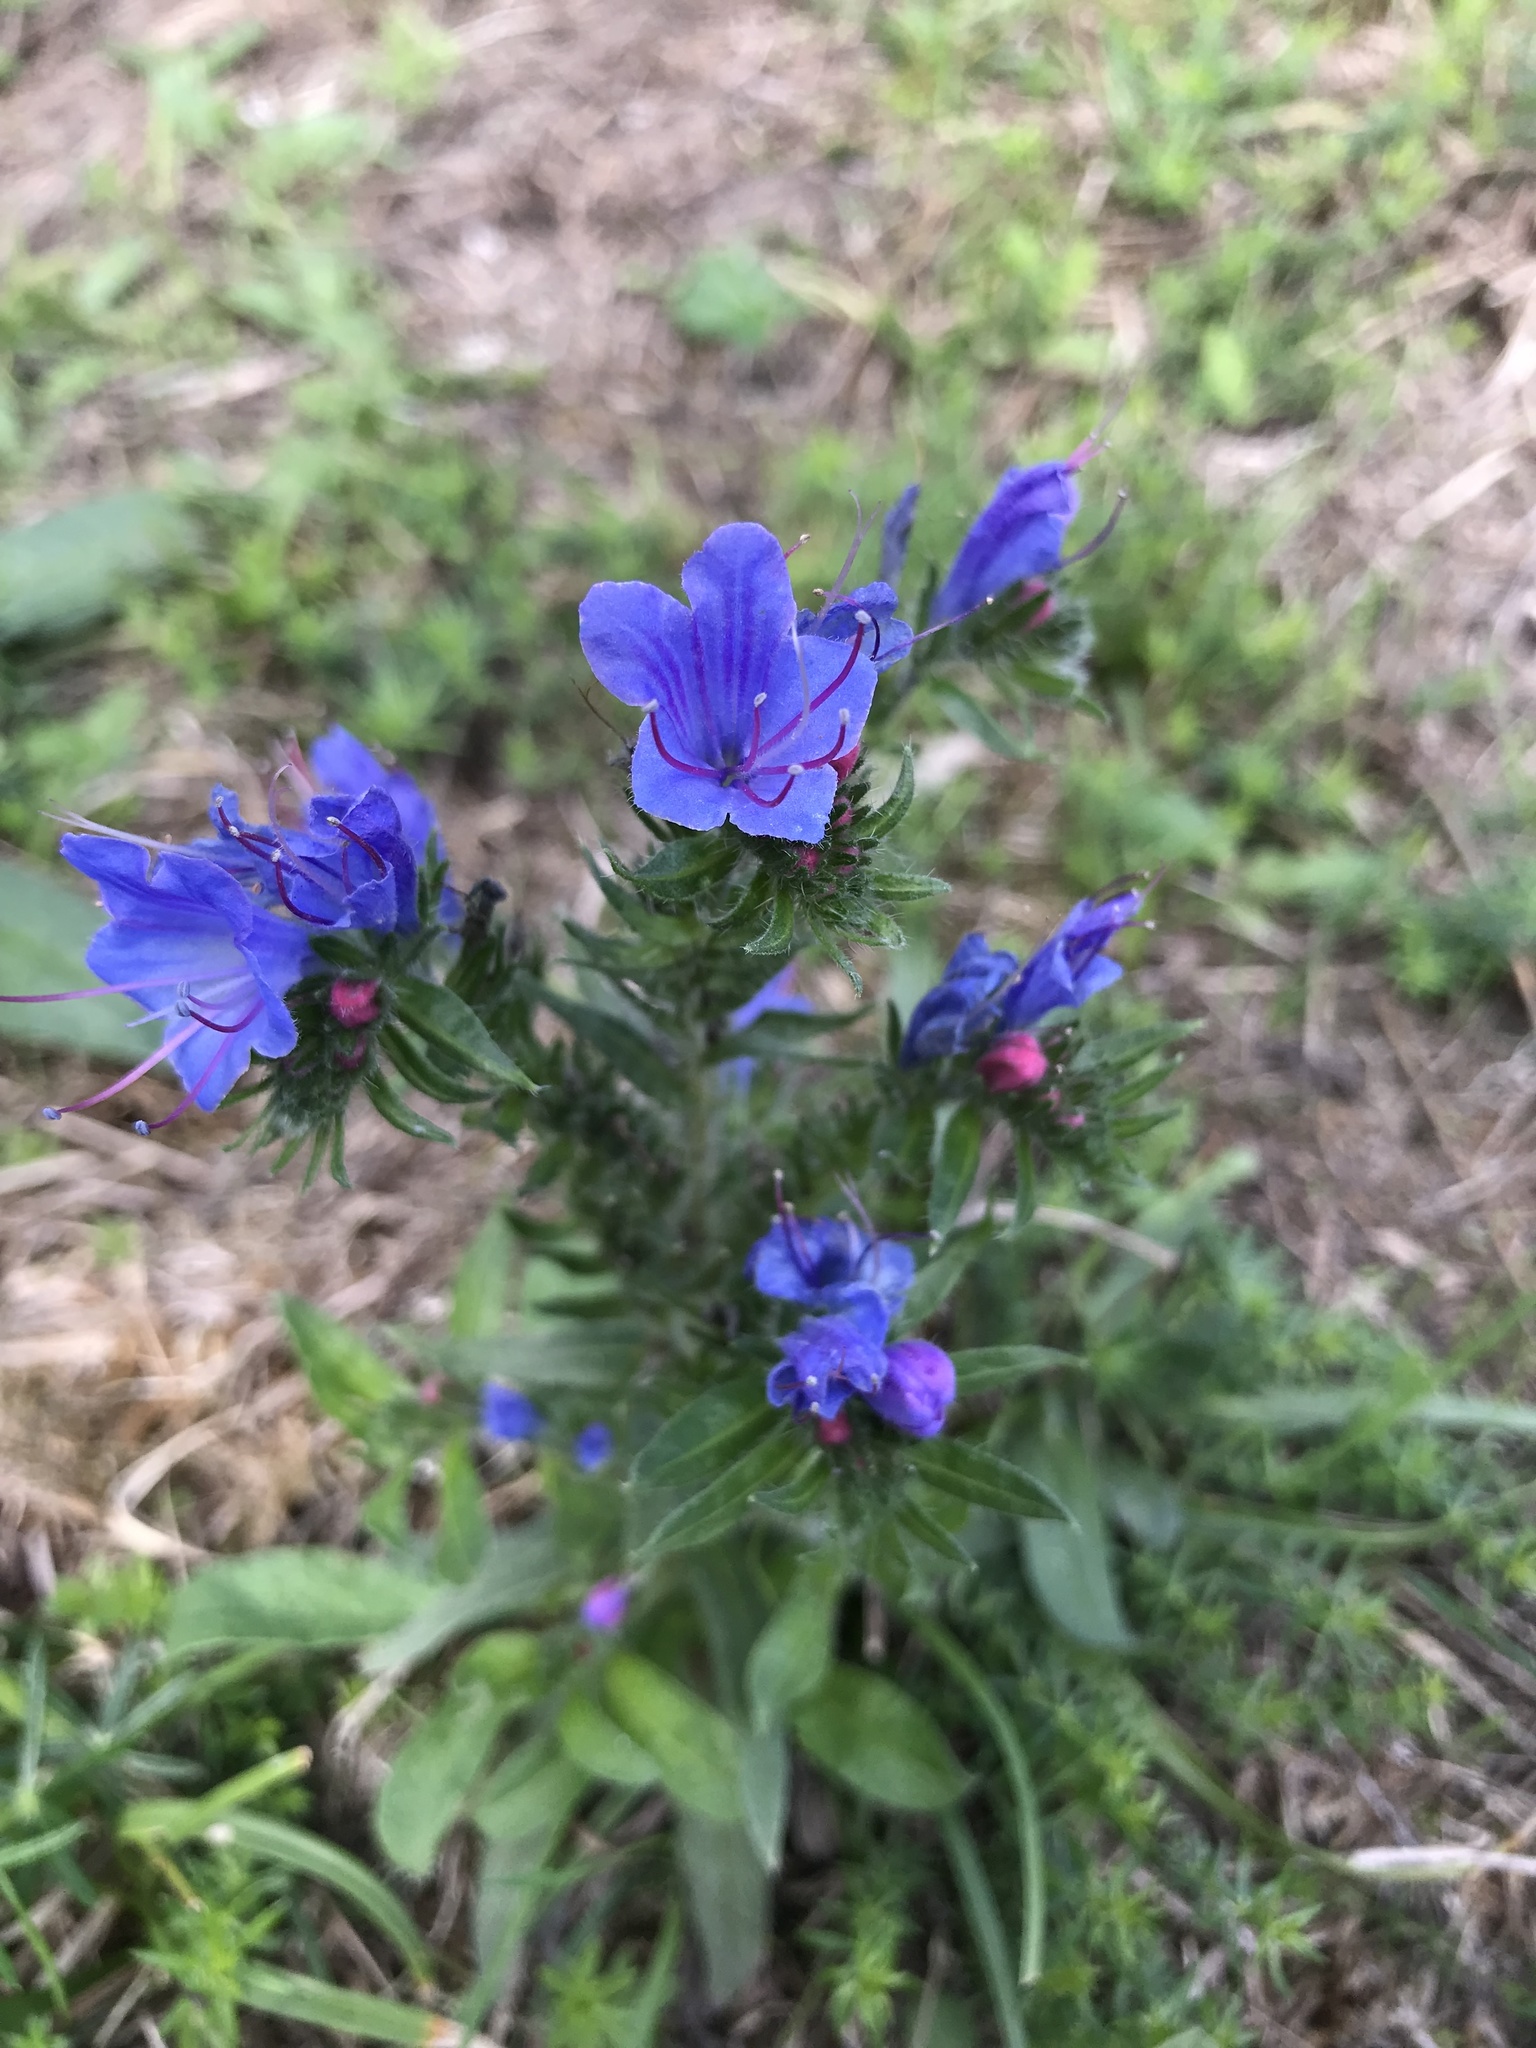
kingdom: Plantae
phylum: Tracheophyta
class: Magnoliopsida
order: Boraginales
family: Boraginaceae
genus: Echium
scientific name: Echium vulgare
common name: Common viper's bugloss
